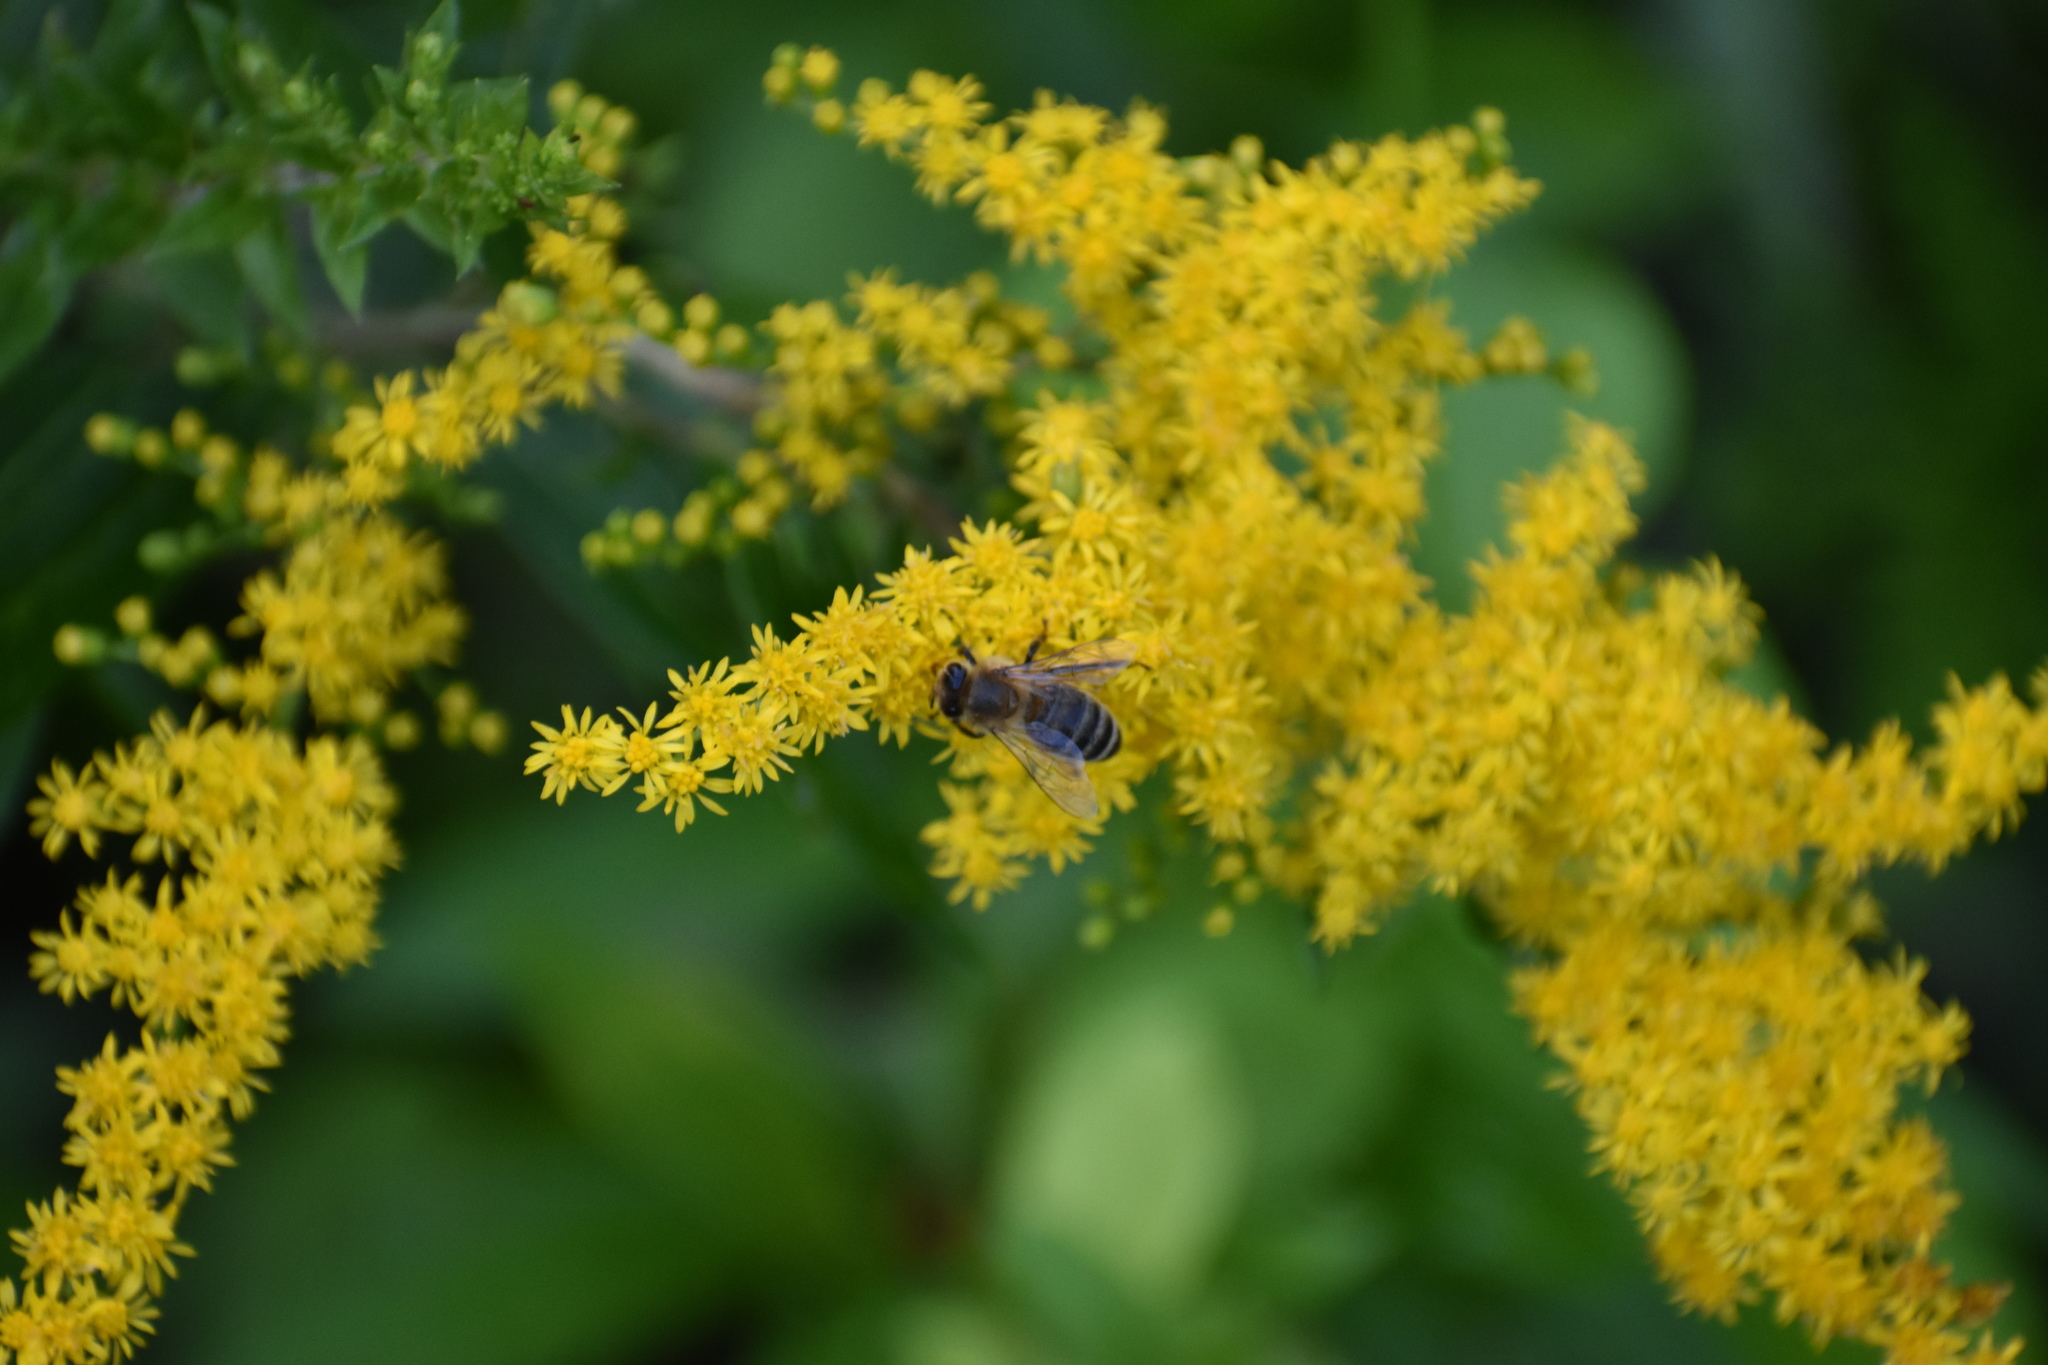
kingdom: Animalia
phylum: Arthropoda
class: Insecta
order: Hymenoptera
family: Apidae
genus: Apis
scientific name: Apis mellifera
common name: Honey bee
